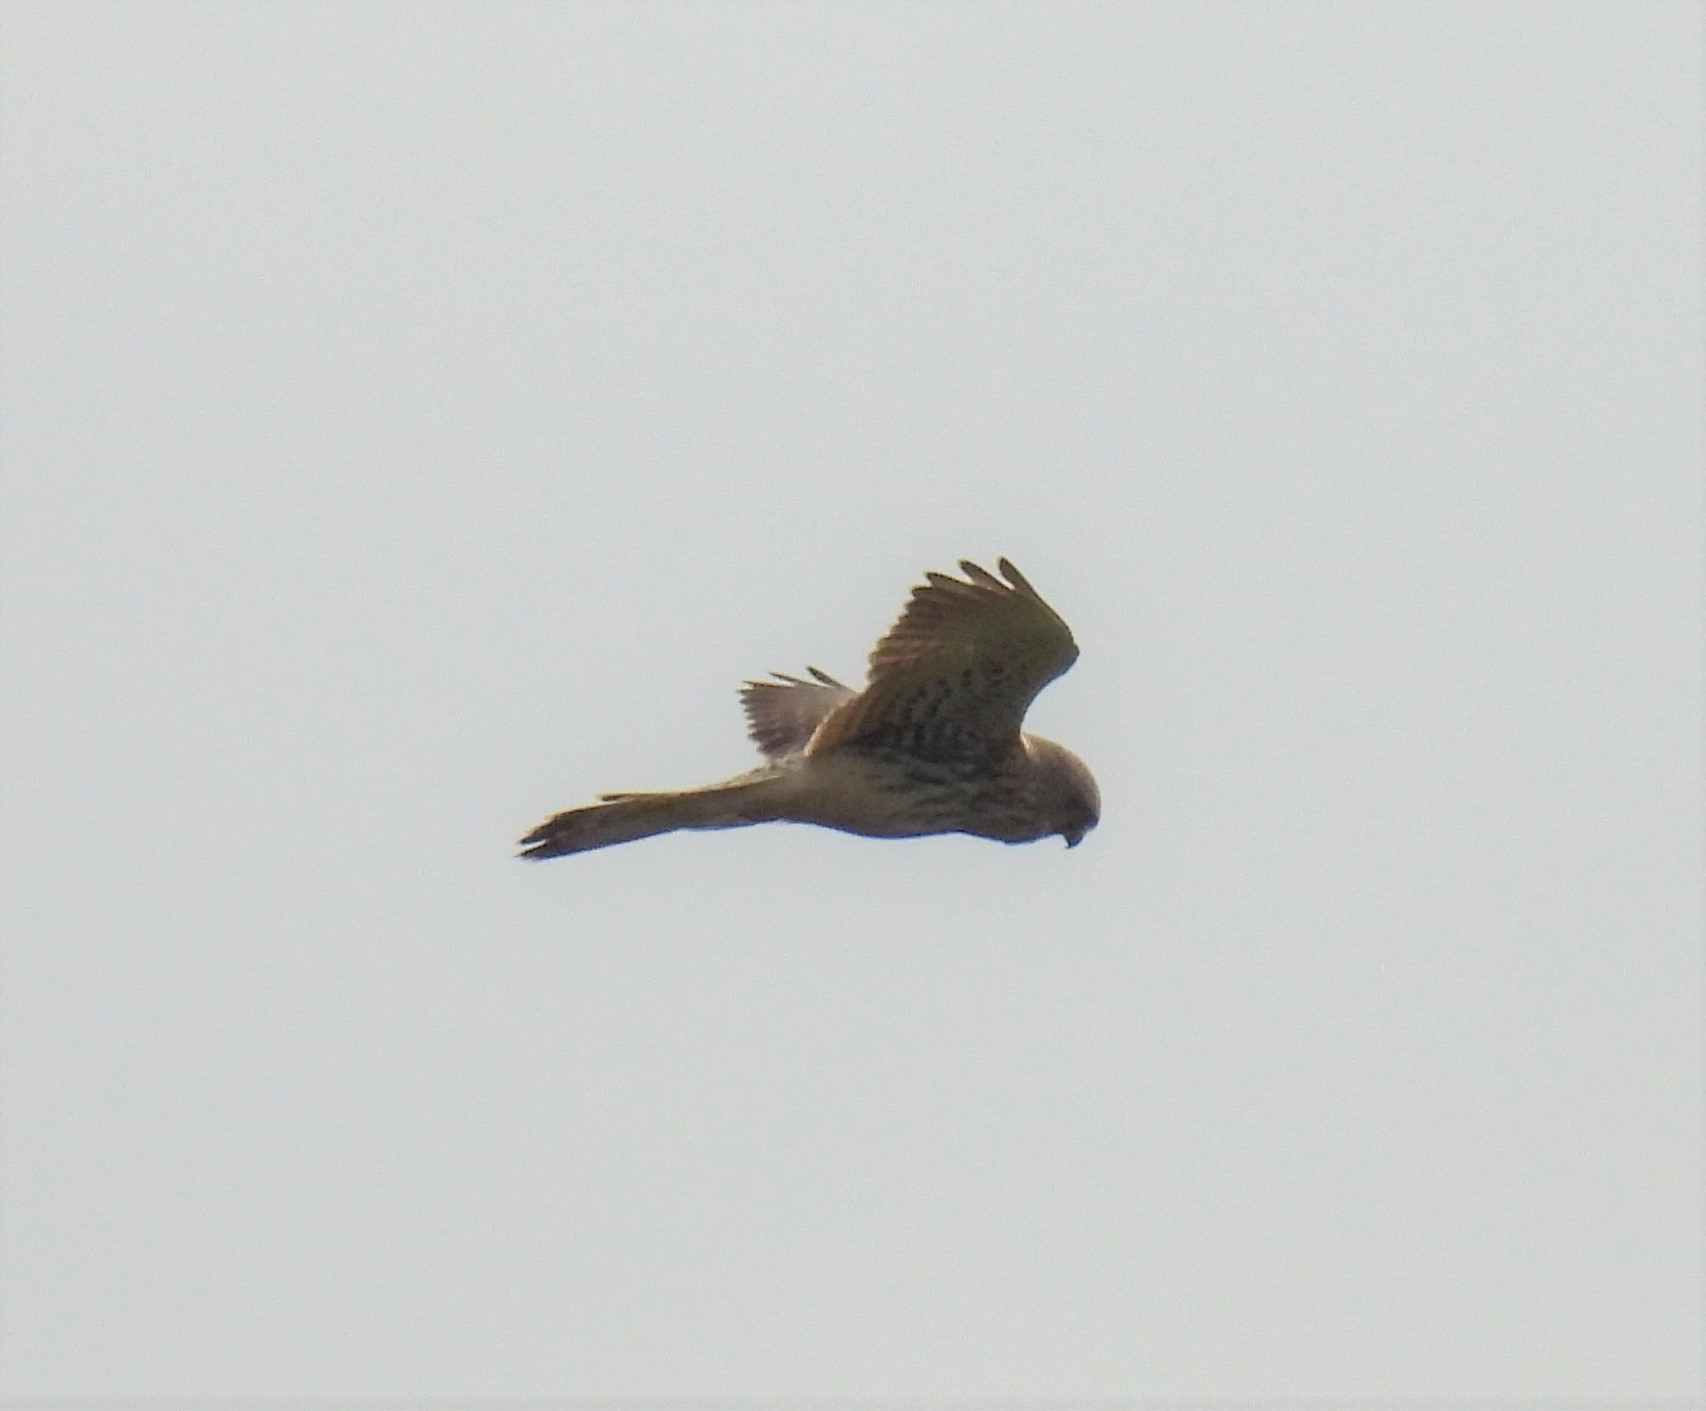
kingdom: Animalia
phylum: Chordata
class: Aves
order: Falconiformes
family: Falconidae
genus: Falco
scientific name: Falco tinnunculus
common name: Common kestrel
